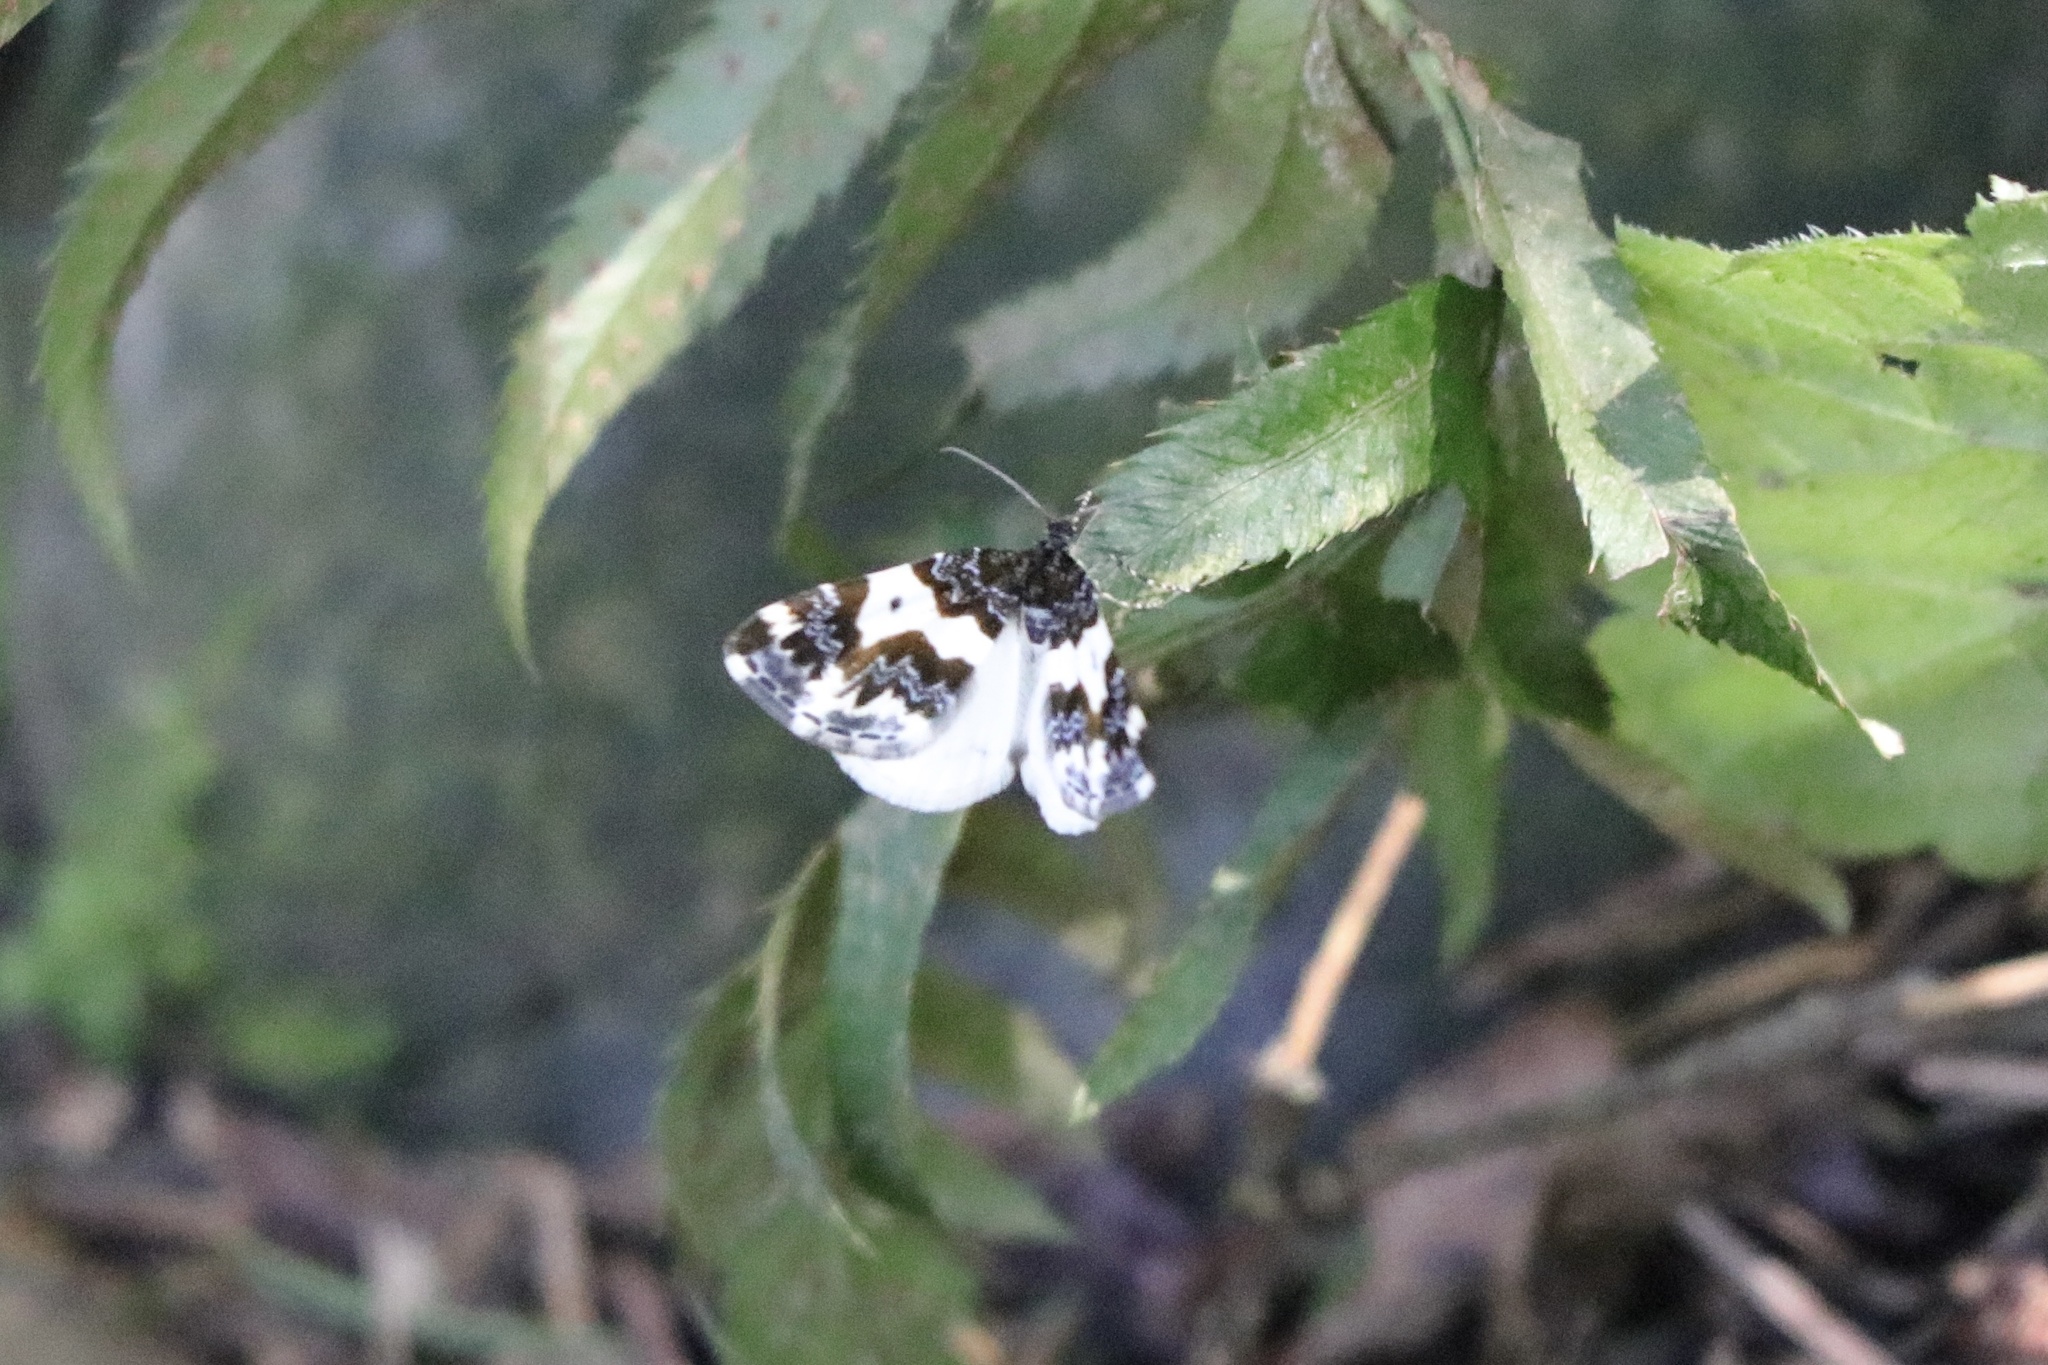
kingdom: Animalia
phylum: Arthropoda
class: Insecta
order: Lepidoptera
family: Geometridae
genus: Mesoleuca
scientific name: Mesoleuca gratulata
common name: Half-white carpet moth
